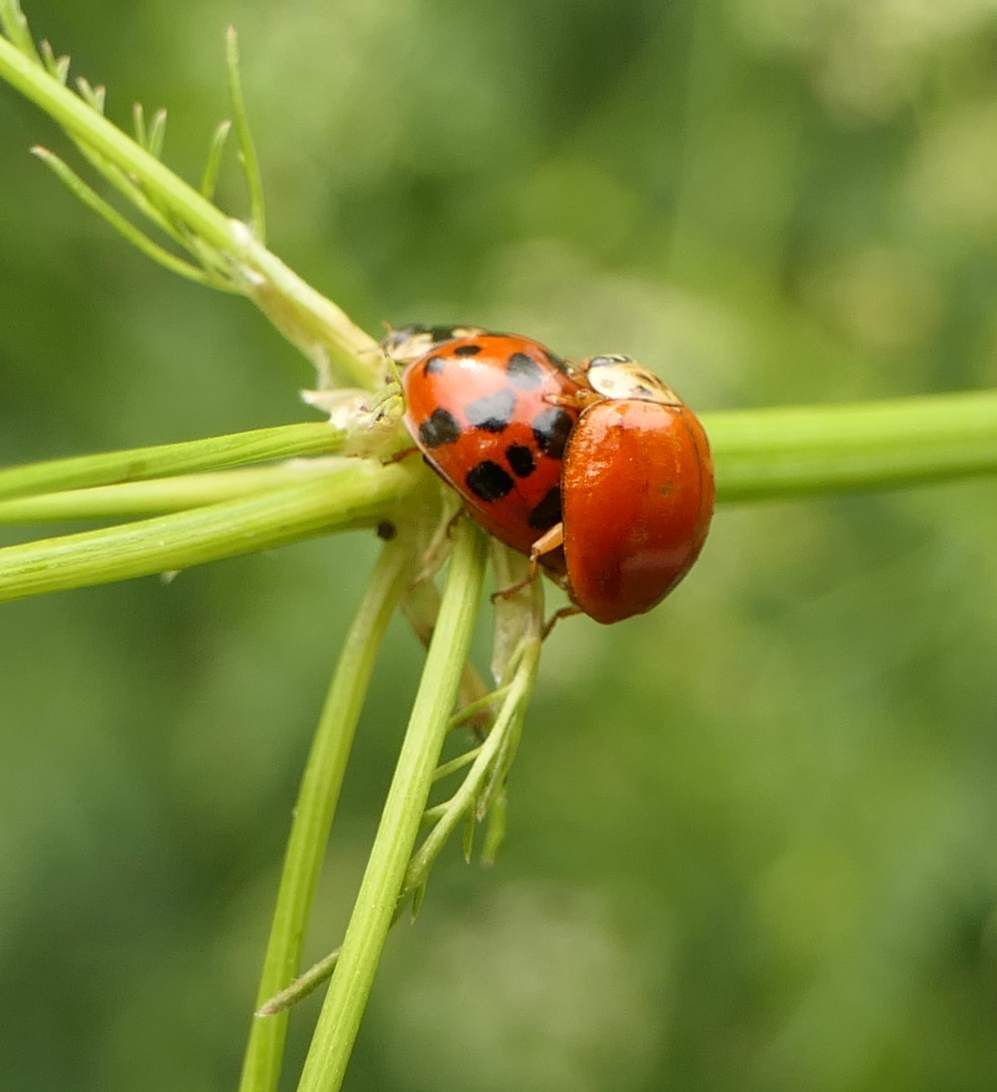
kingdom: Animalia
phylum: Arthropoda
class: Insecta
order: Coleoptera
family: Coccinellidae
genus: Harmonia
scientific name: Harmonia axyridis
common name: Harlequin ladybird
